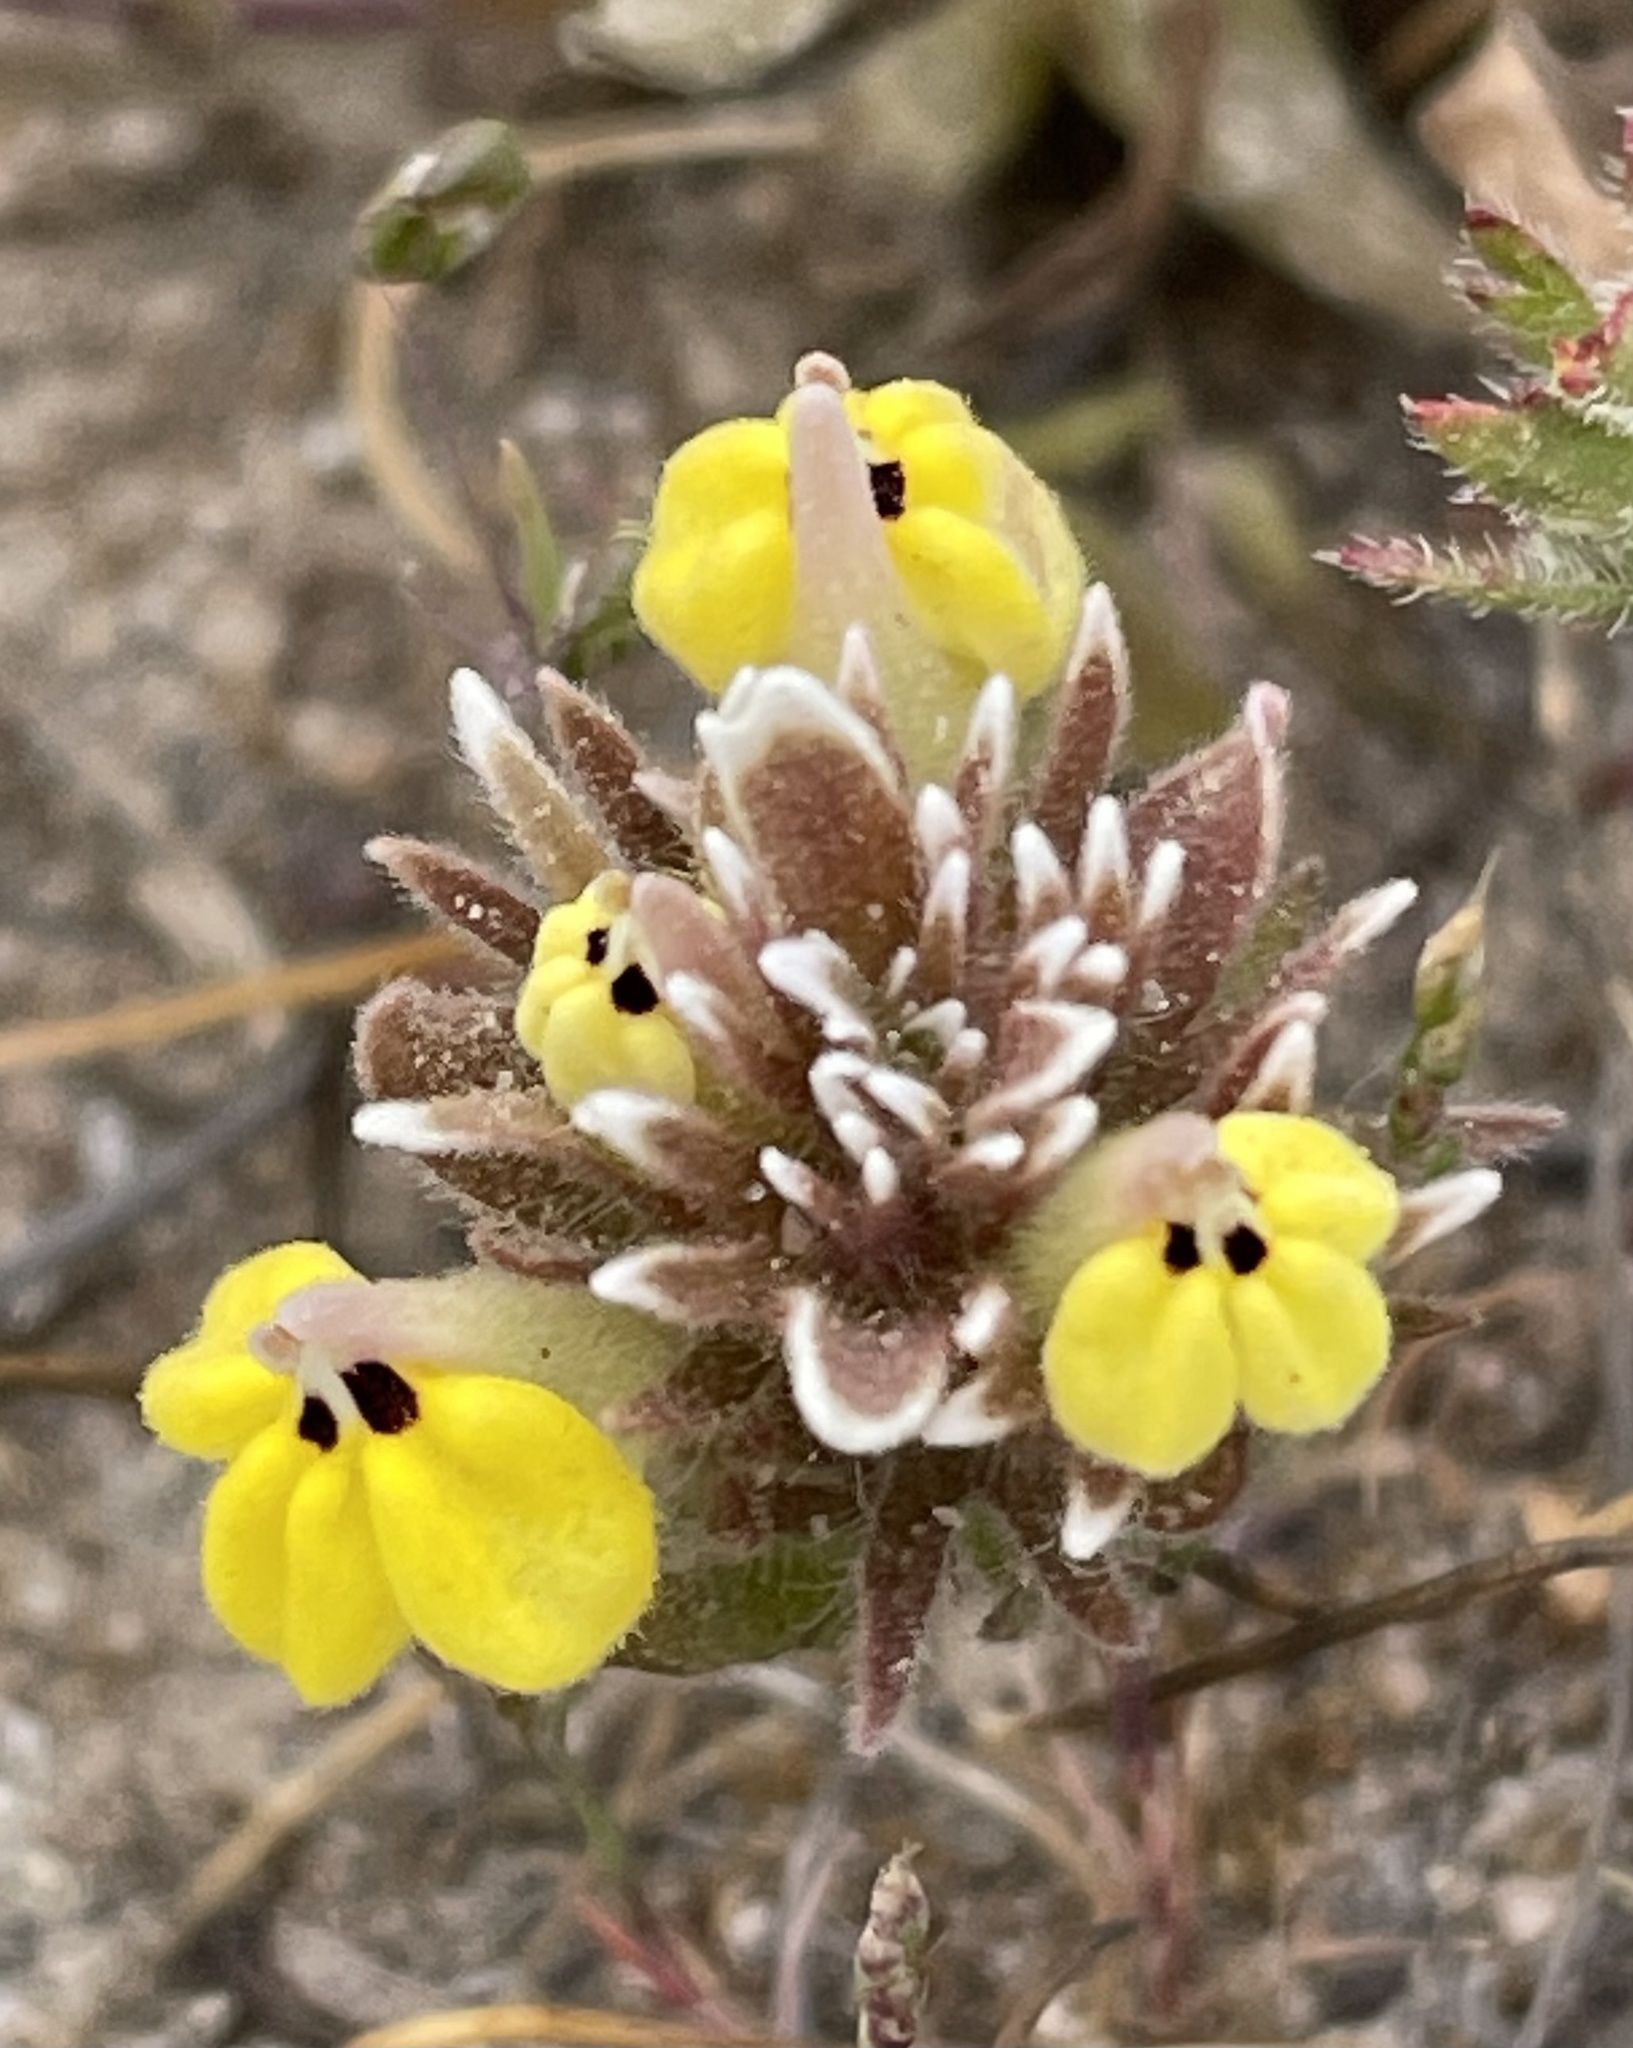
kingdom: Plantae
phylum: Tracheophyta
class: Magnoliopsida
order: Lamiales
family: Orobanchaceae
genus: Castilleja
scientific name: Castilleja ambigua
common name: Johnny-nip
